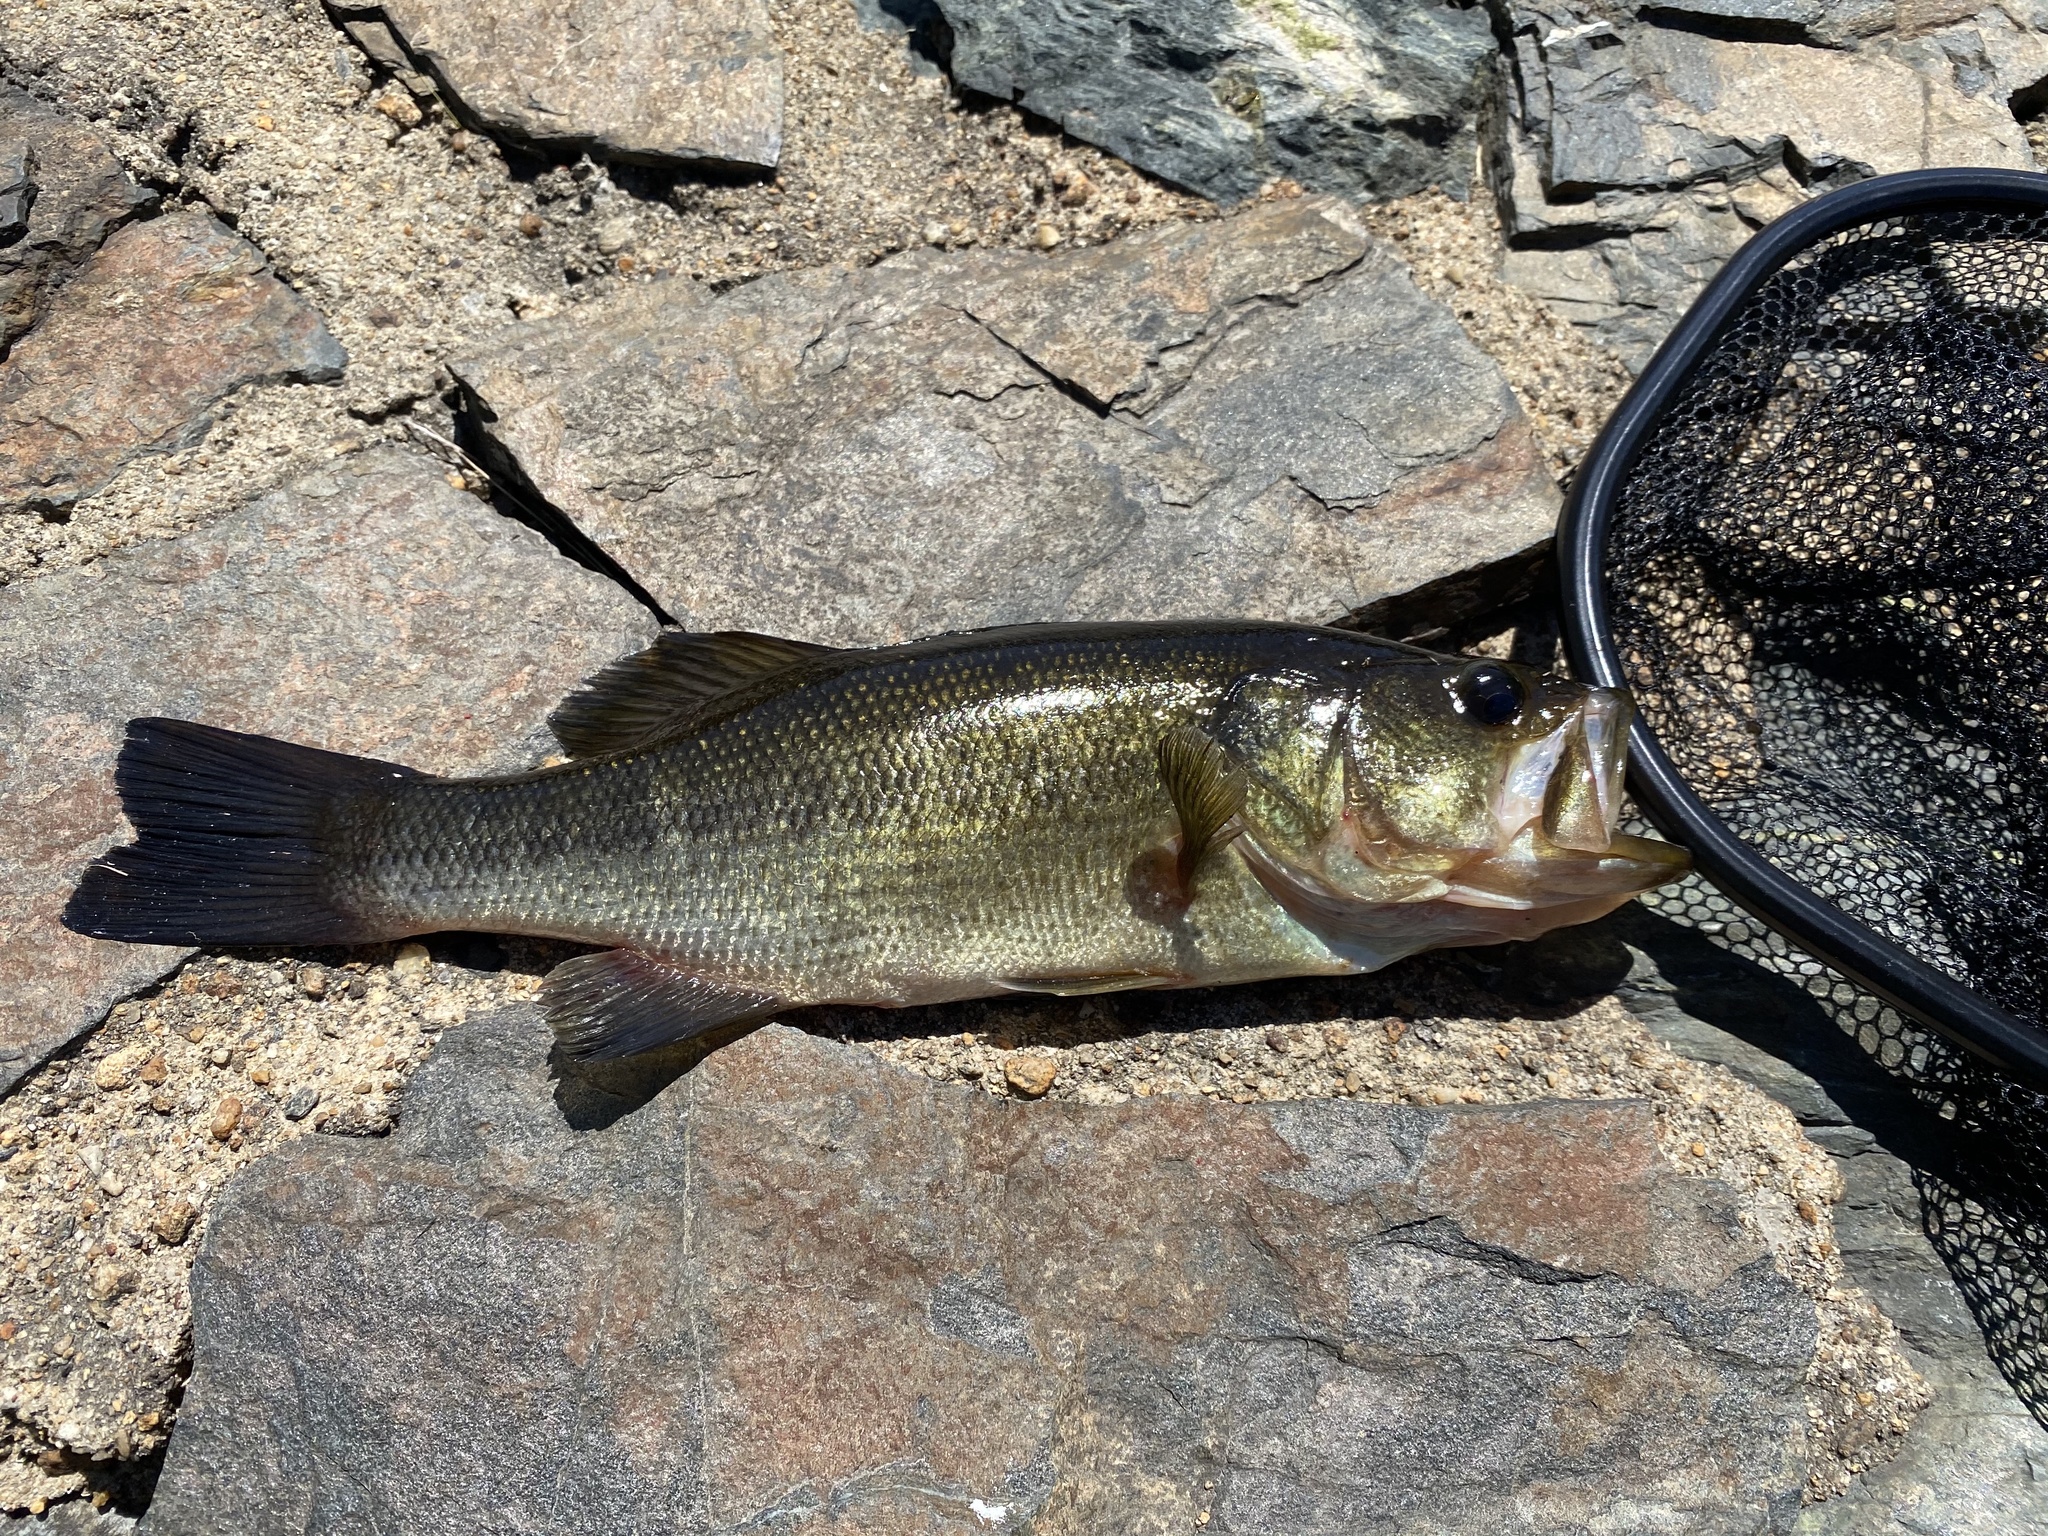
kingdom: Animalia
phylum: Chordata
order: Perciformes
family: Centrarchidae
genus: Micropterus
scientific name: Micropterus
